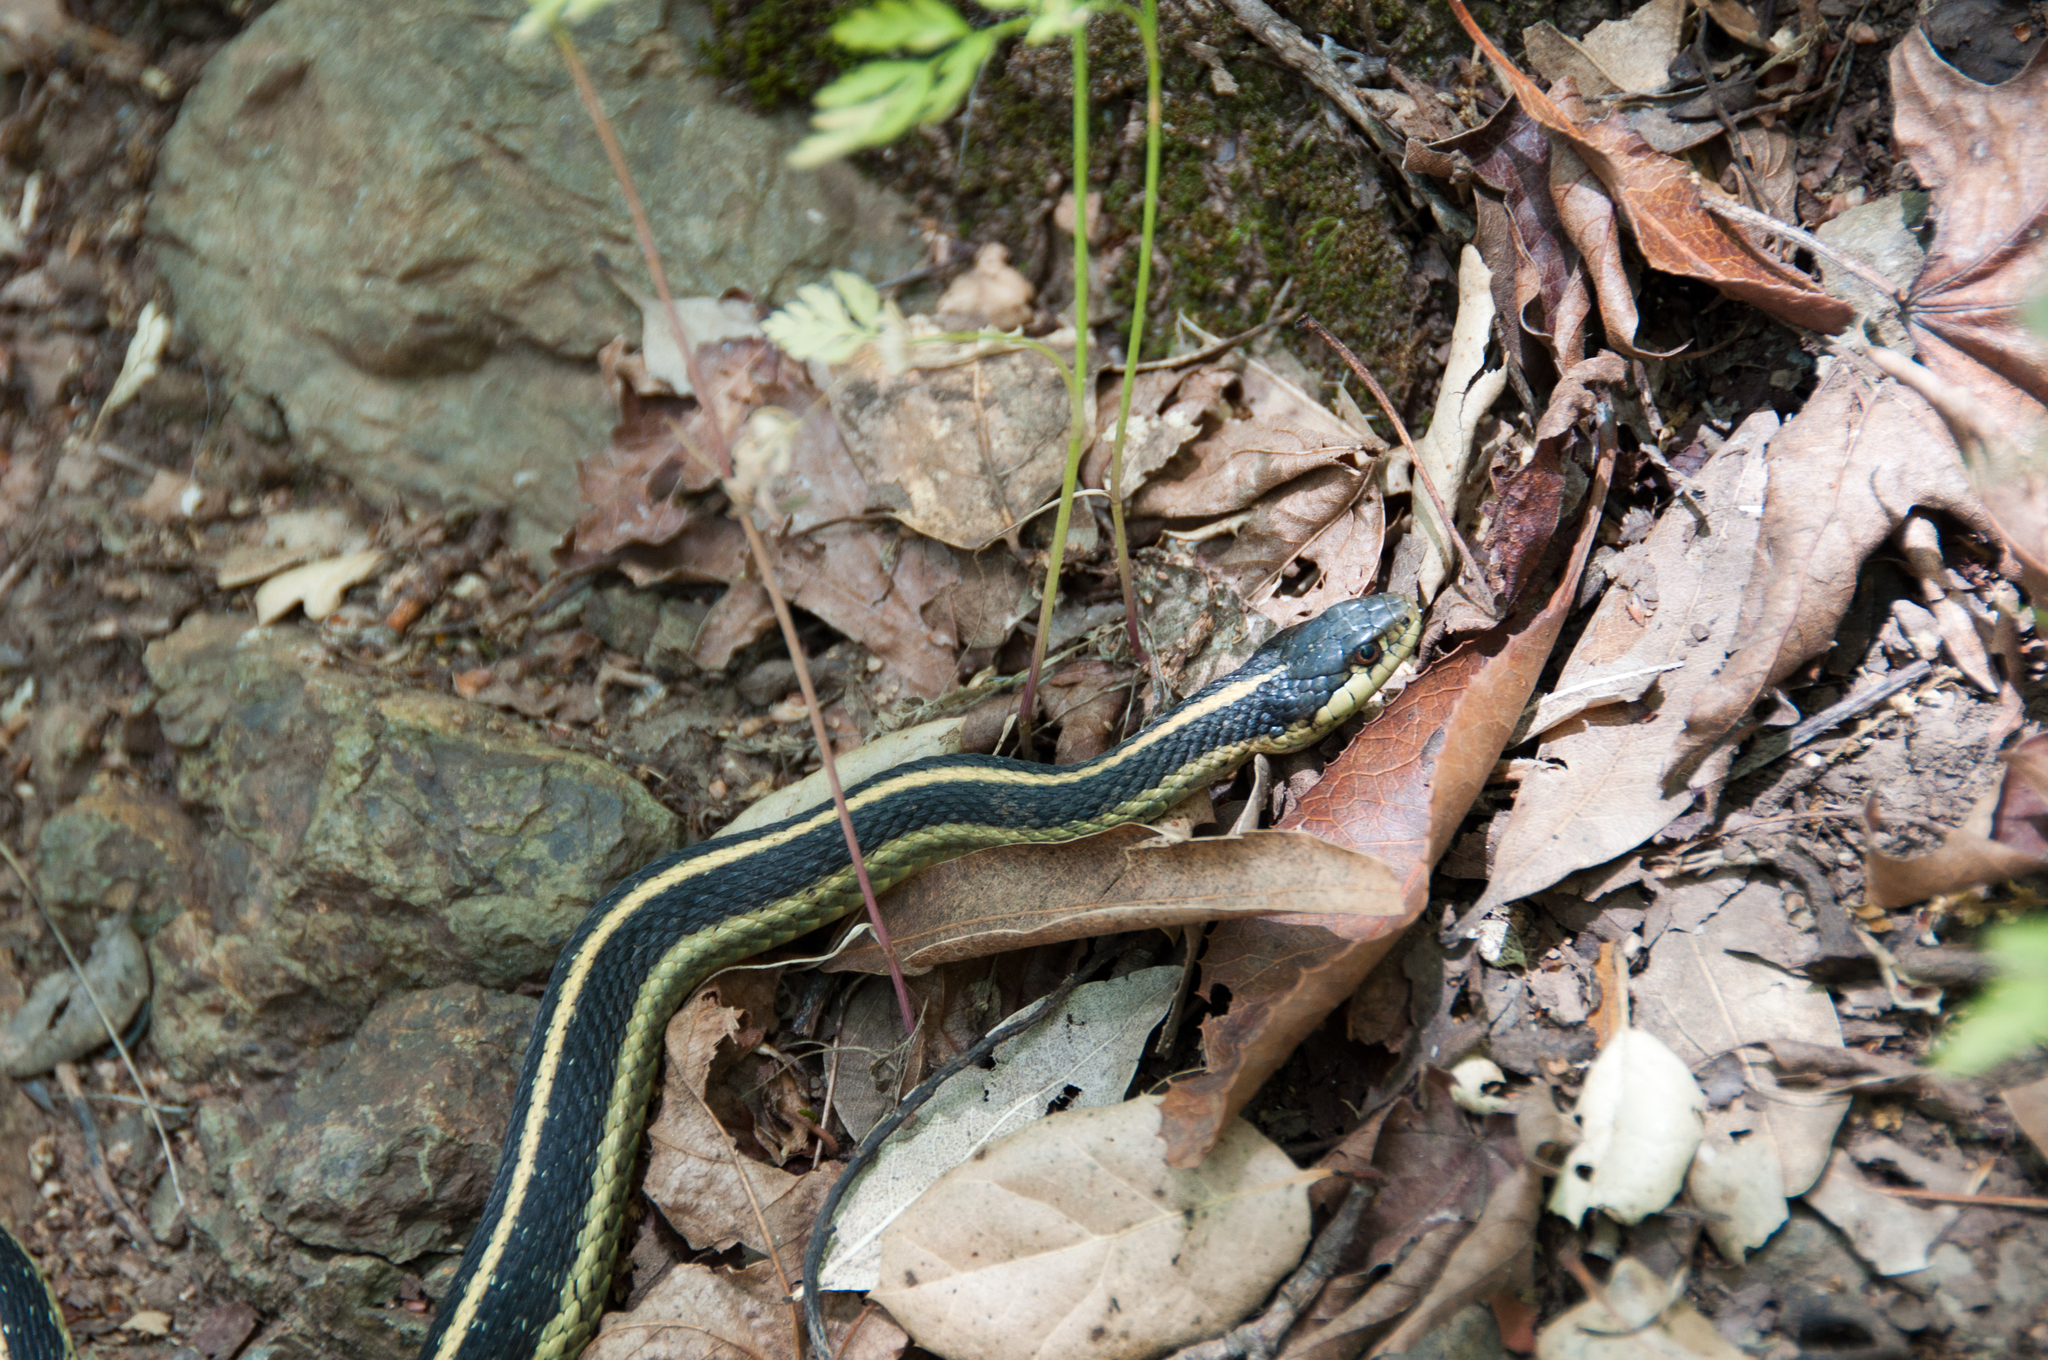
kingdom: Animalia
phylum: Chordata
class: Squamata
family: Colubridae
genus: Thamnophis
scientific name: Thamnophis elegans
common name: Western terrestrial garter snake
